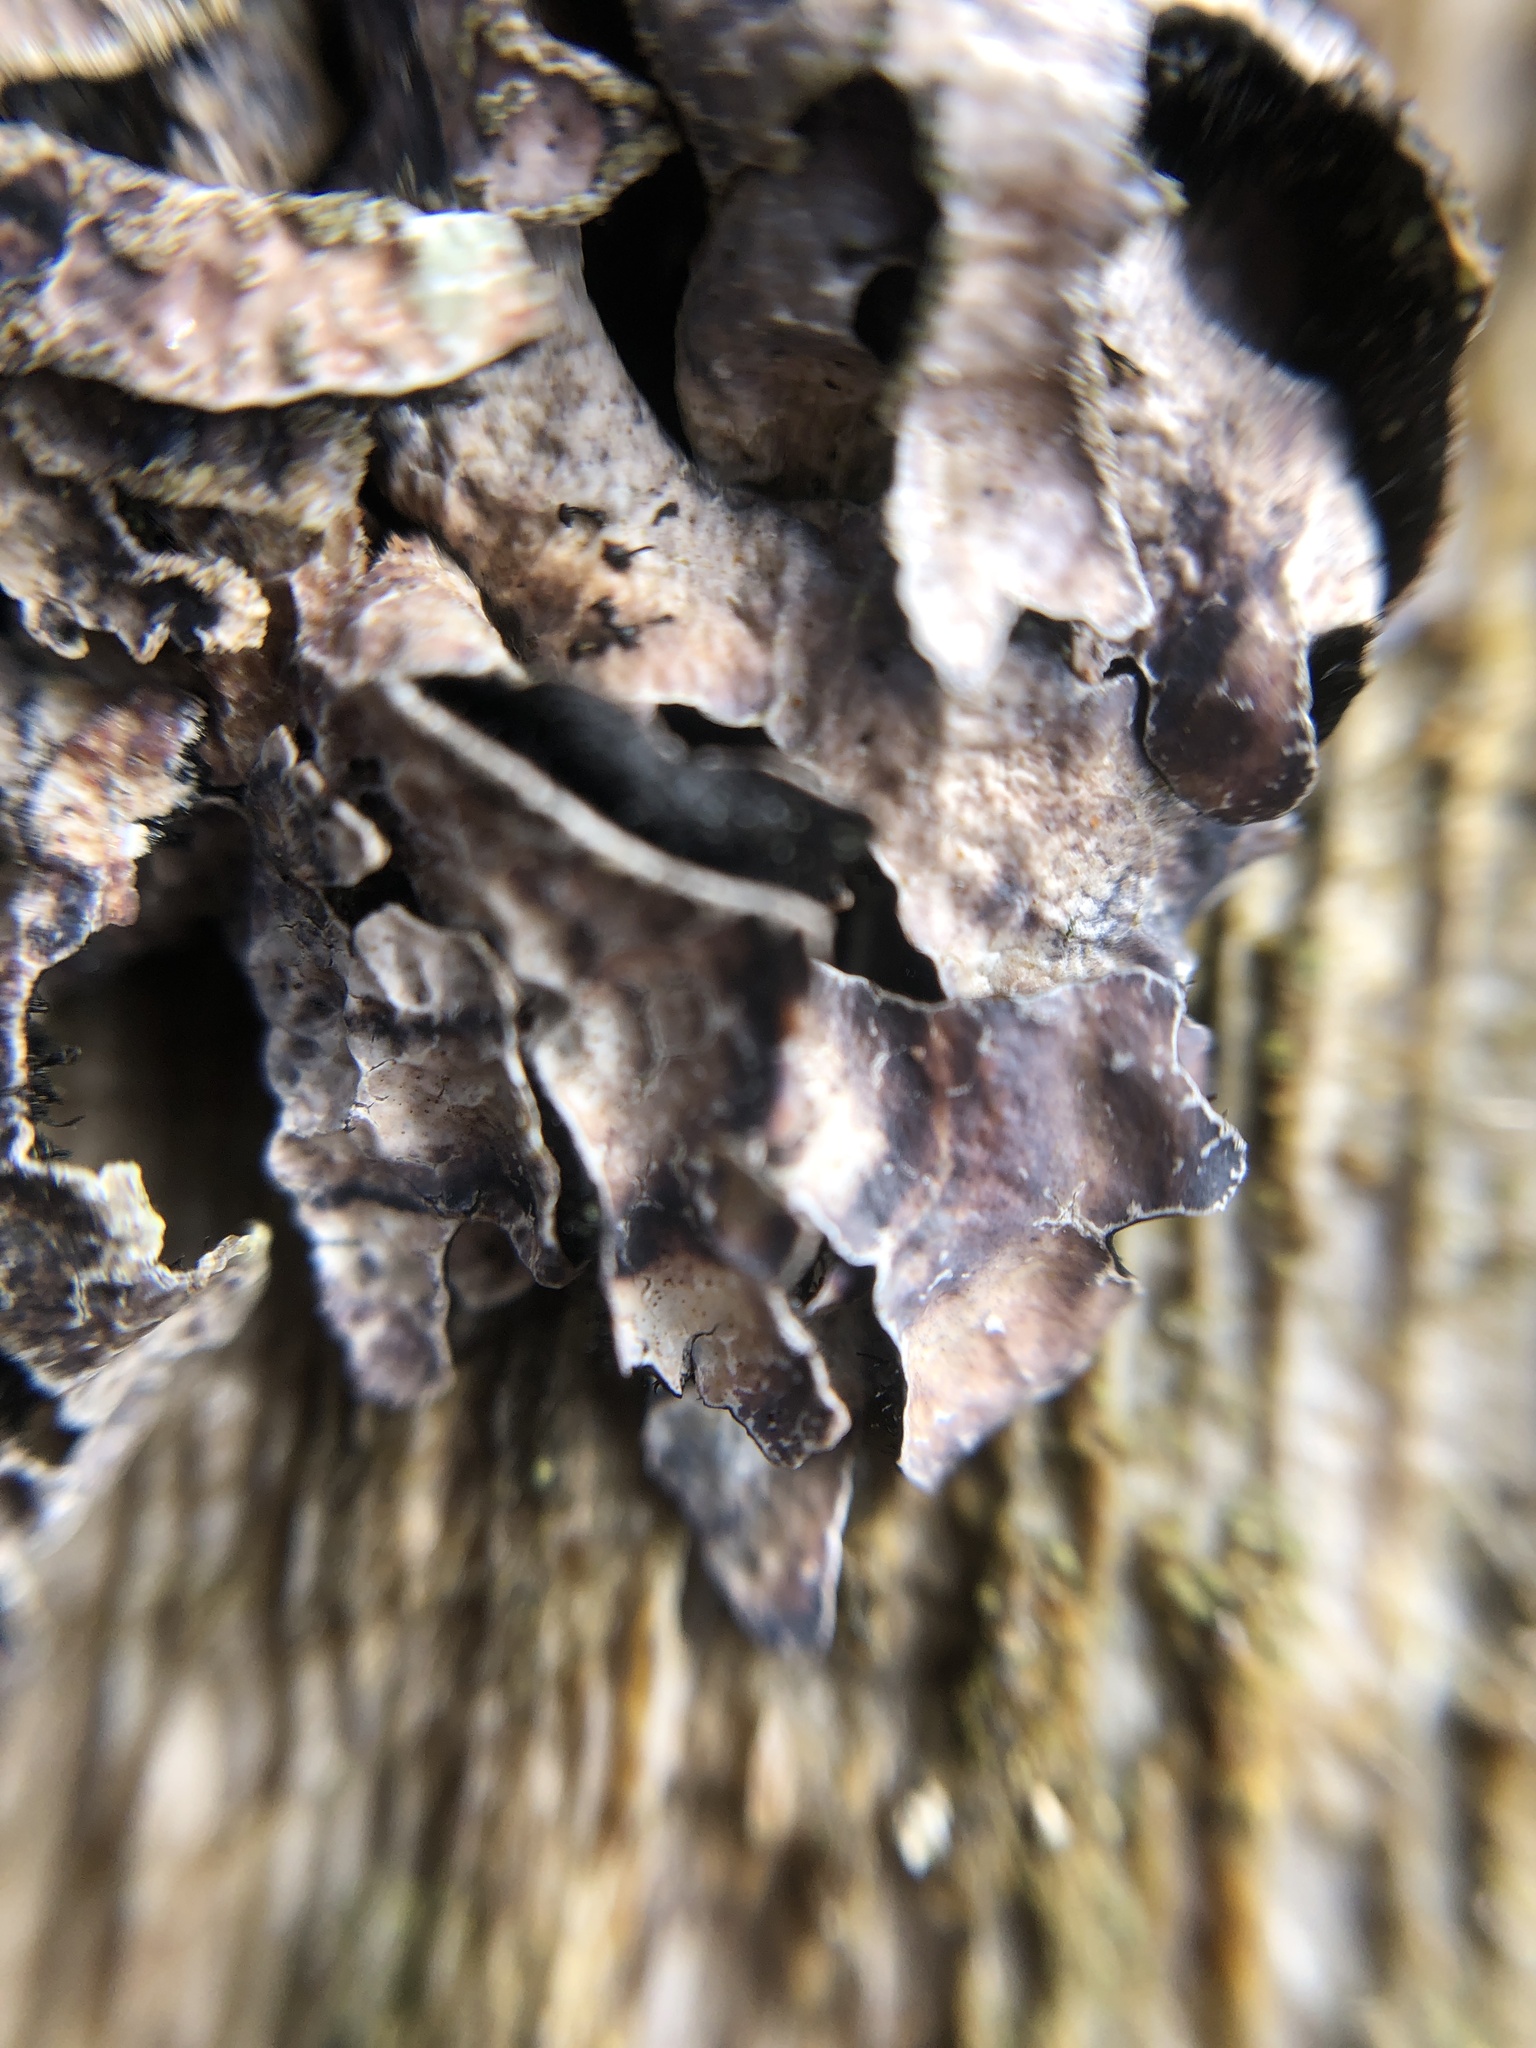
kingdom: Fungi
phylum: Ascomycota
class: Lecanoromycetes
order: Lecanorales
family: Parmeliaceae
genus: Parmelia
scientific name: Parmelia sulcata
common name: Netted shield lichen
